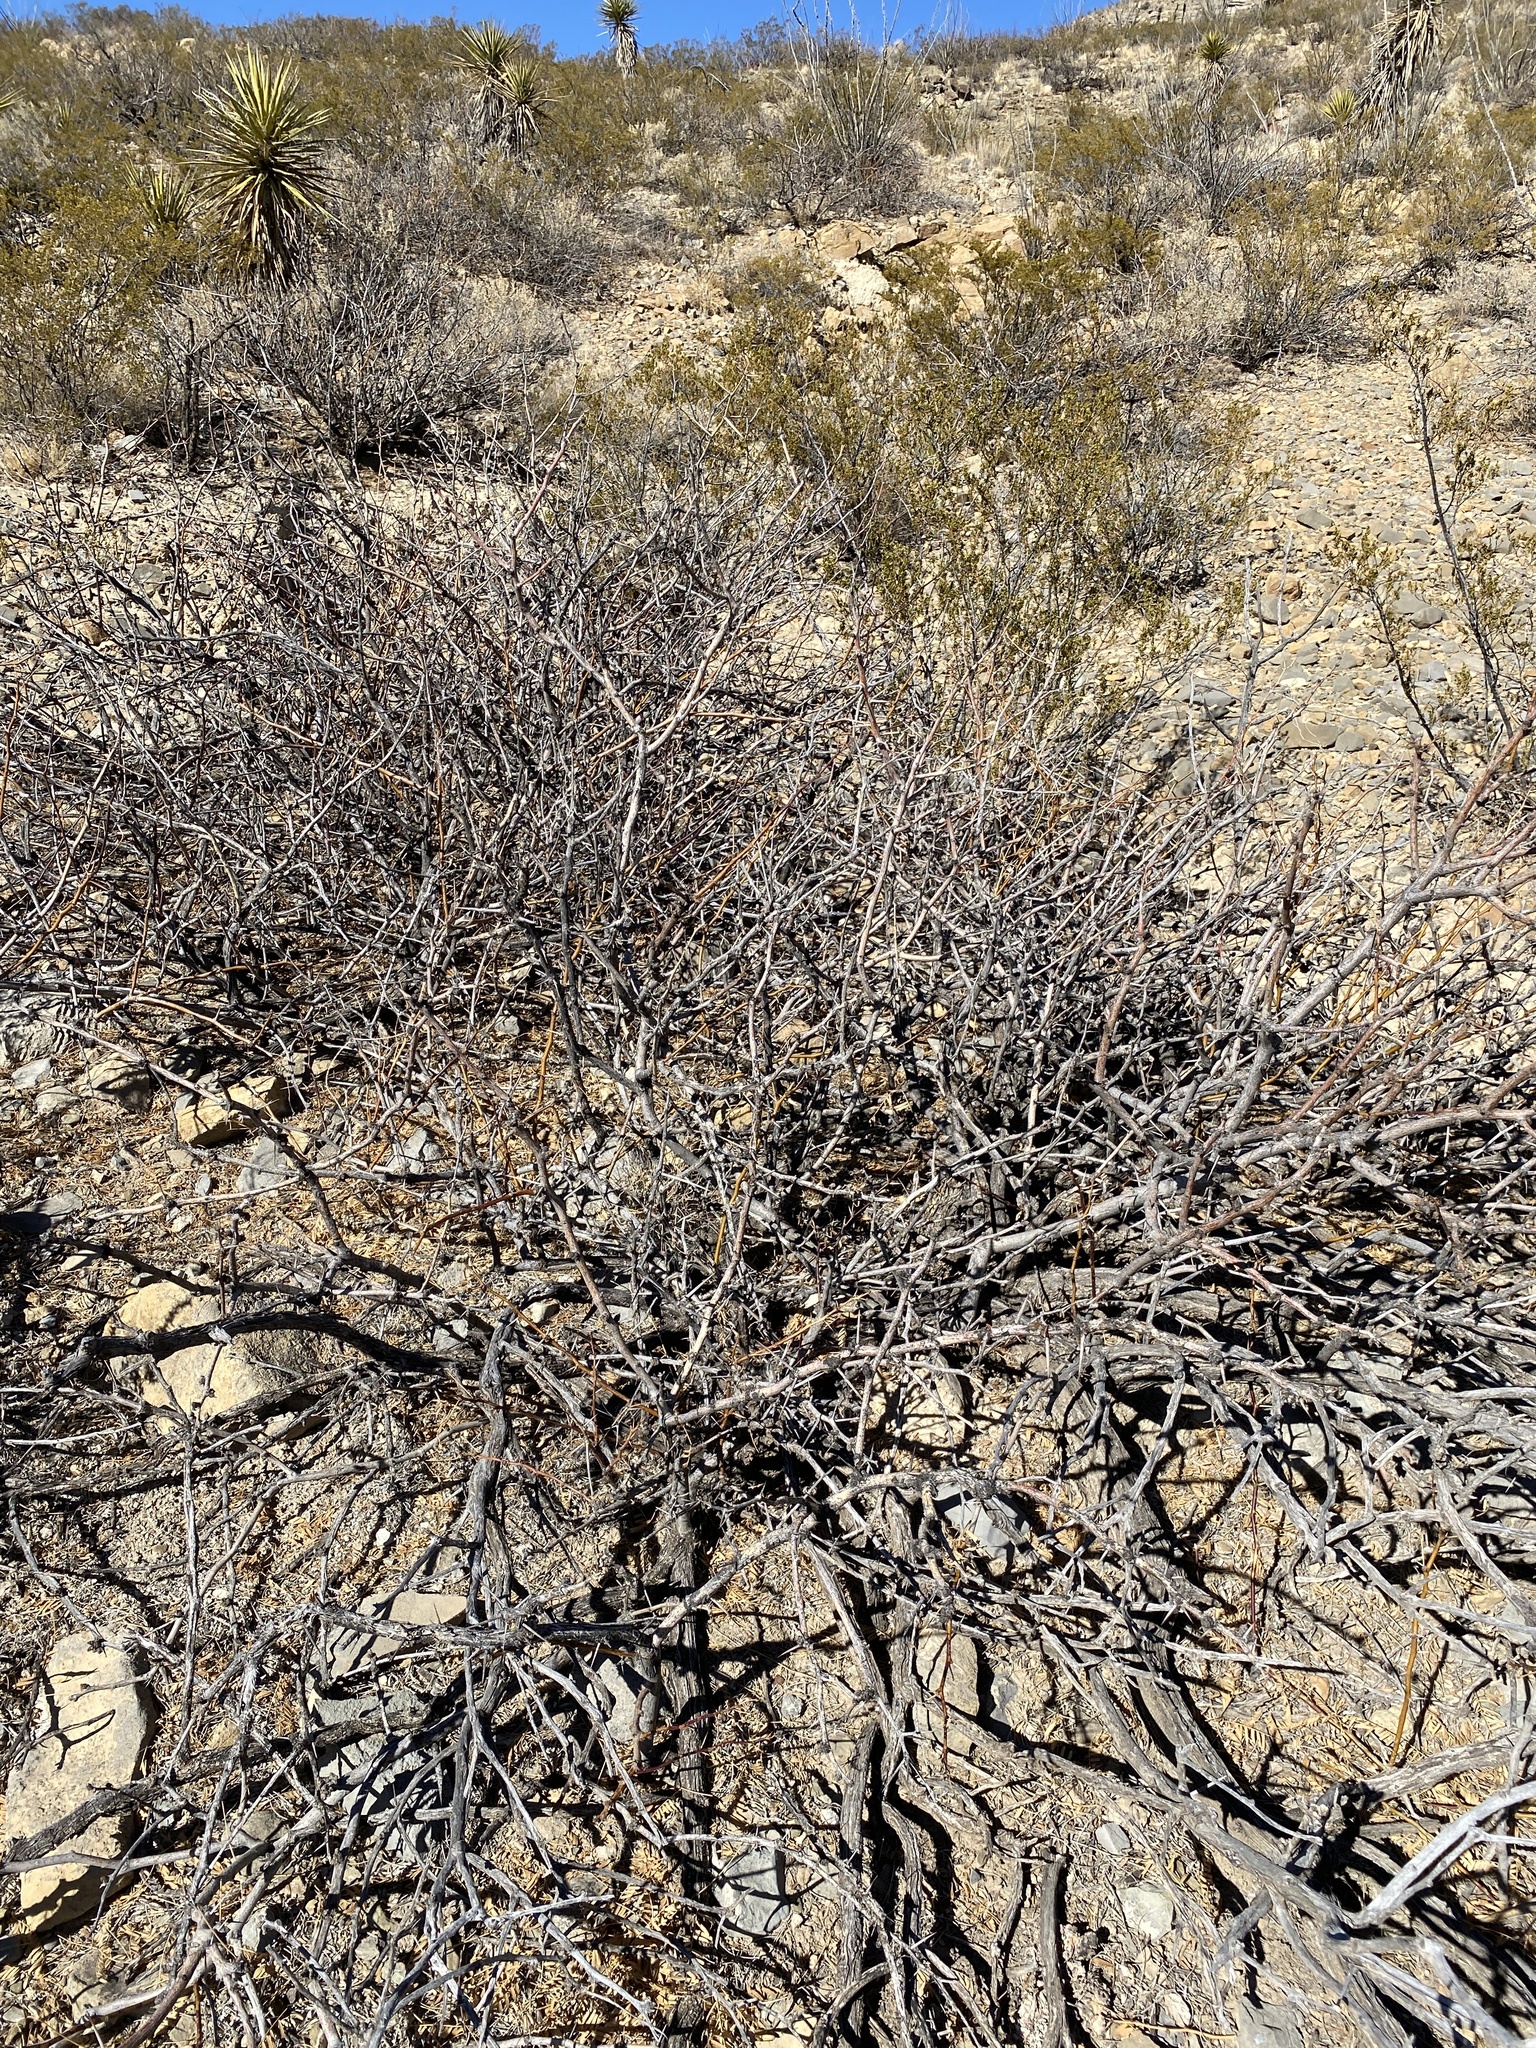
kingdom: Plantae
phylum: Tracheophyta
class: Magnoliopsida
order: Fabales
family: Fabaceae
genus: Prosopis
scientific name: Prosopis glandulosa
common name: Honey mesquite
